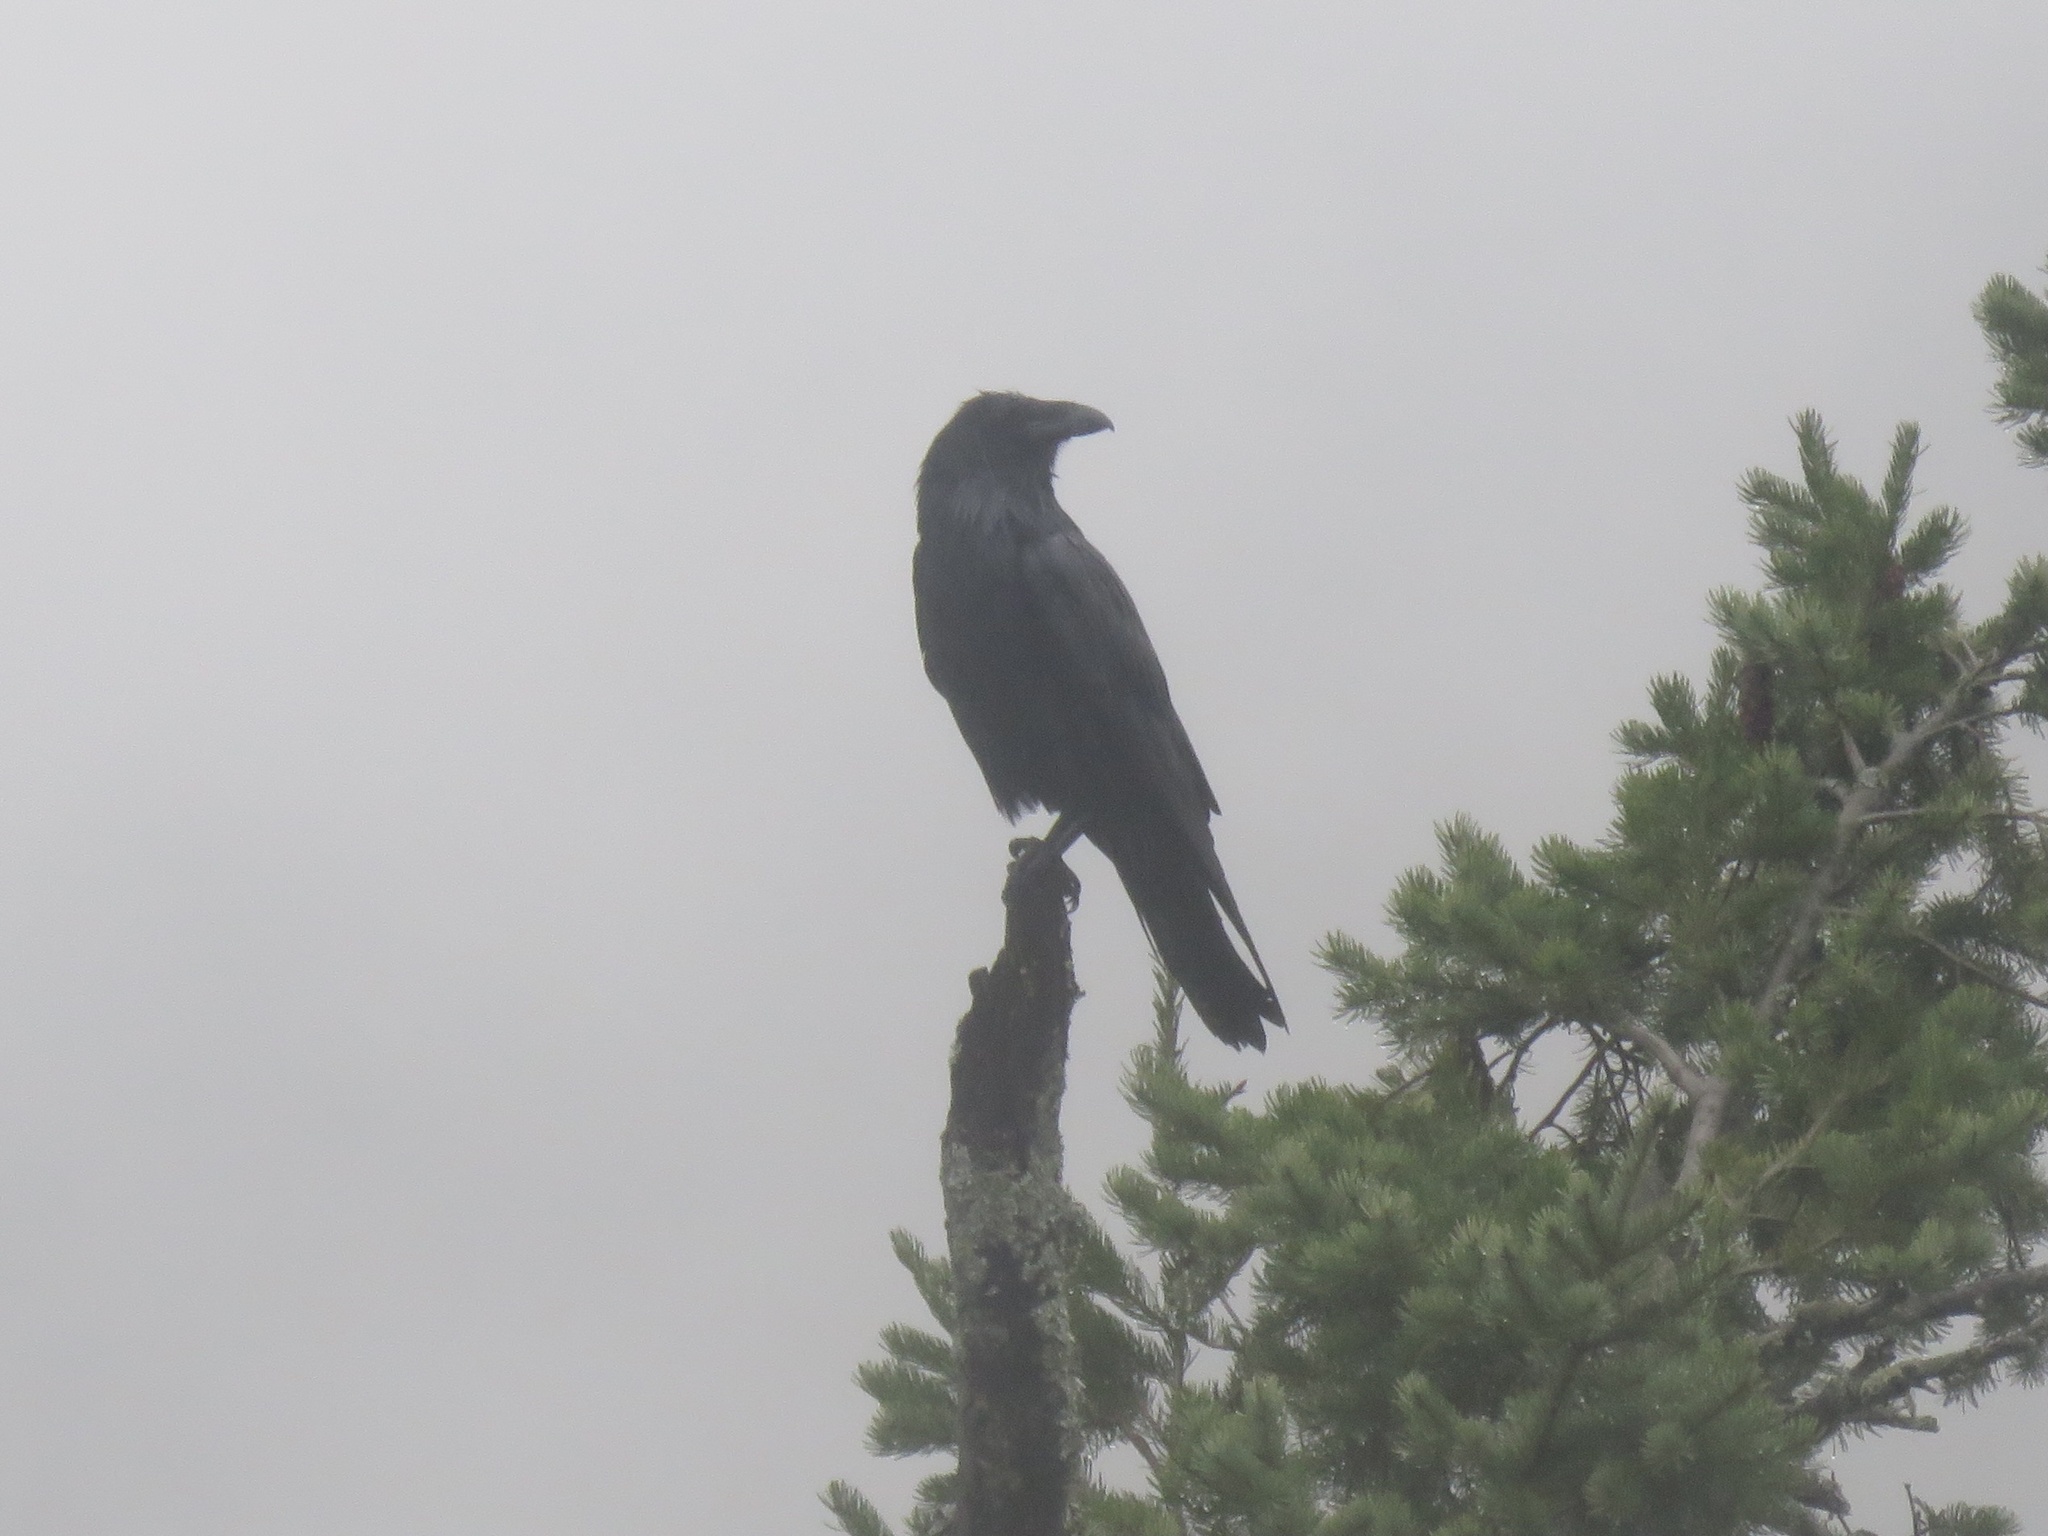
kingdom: Animalia
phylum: Chordata
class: Aves
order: Passeriformes
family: Corvidae
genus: Corvus
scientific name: Corvus corax
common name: Common raven
